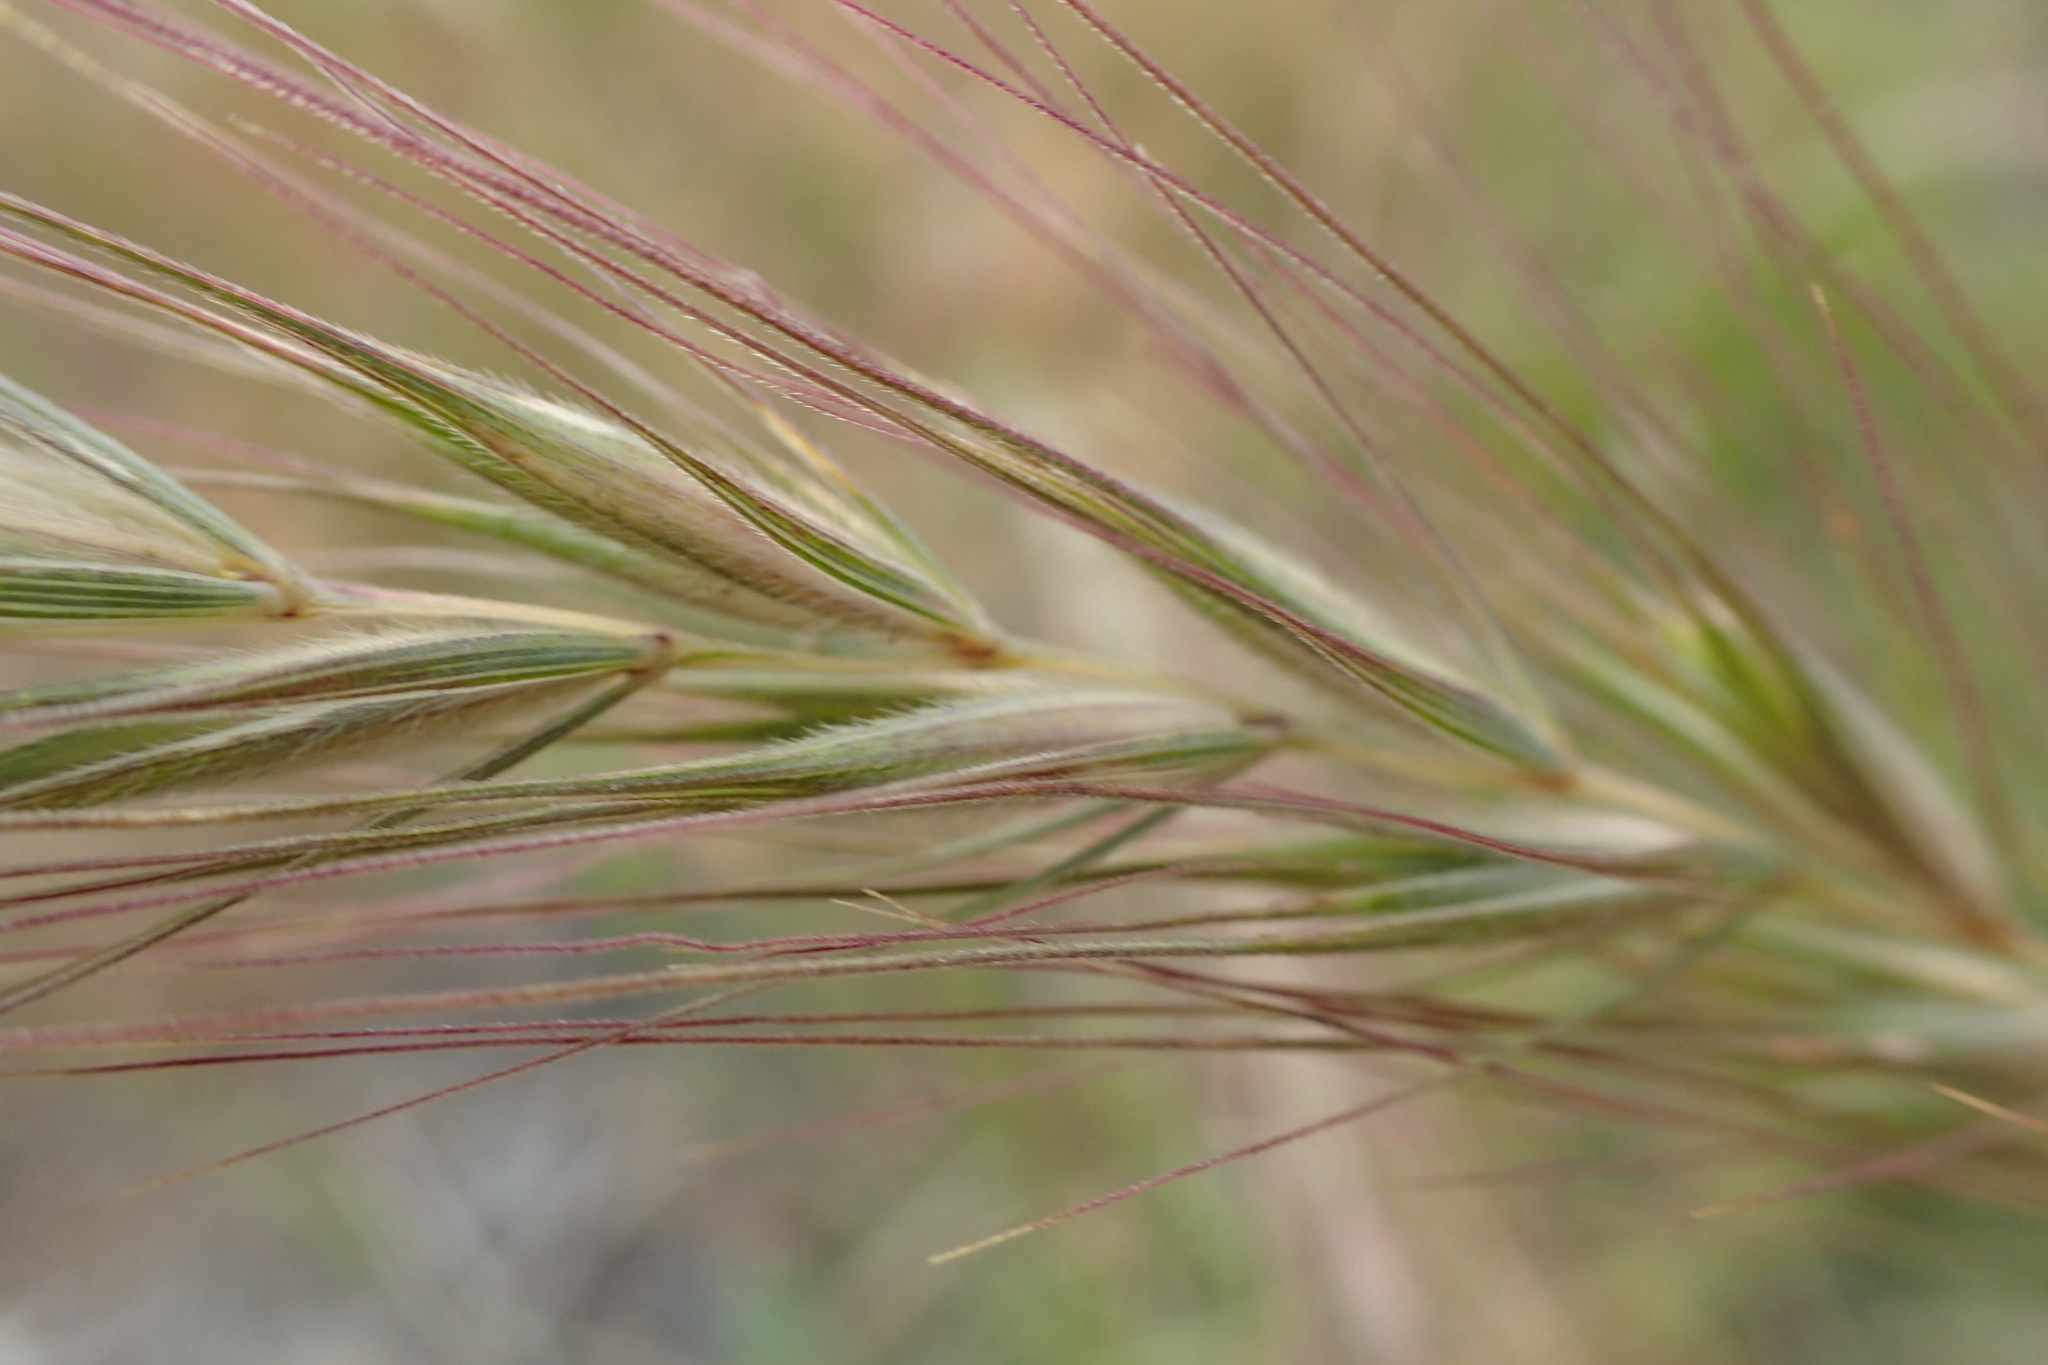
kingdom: Plantae
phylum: Tracheophyta
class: Liliopsida
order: Poales
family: Poaceae
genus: Elymus
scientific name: Elymus canadensis
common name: Canada wild rye
